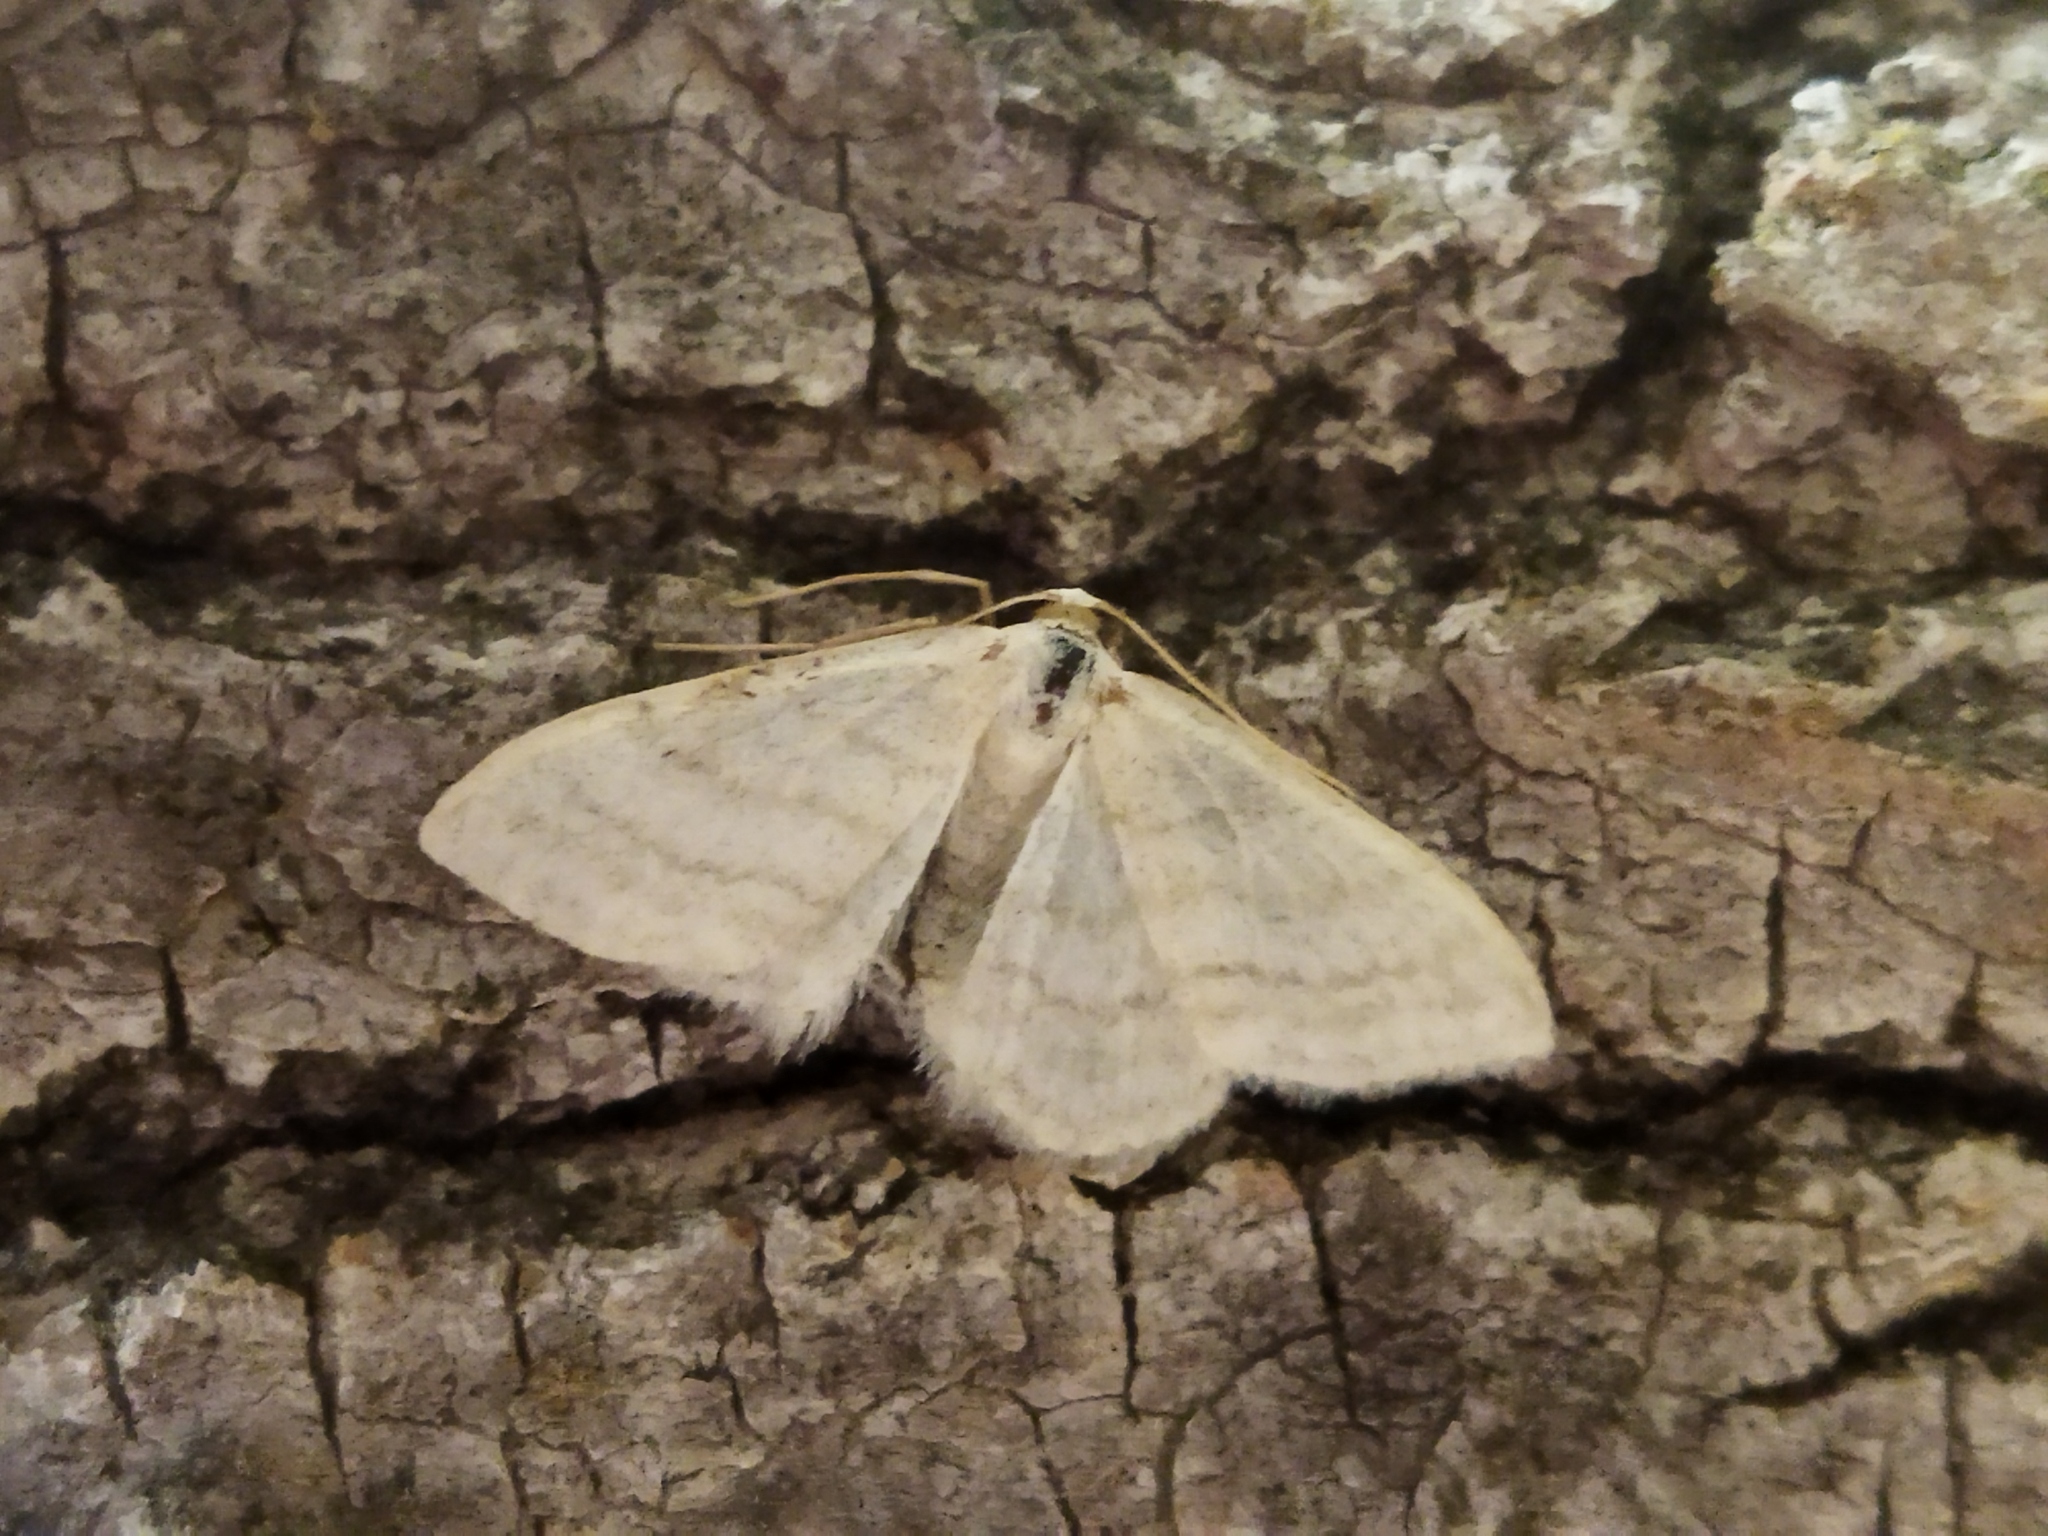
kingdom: Animalia
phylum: Arthropoda
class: Insecta
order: Lepidoptera
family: Geometridae
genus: Idaea
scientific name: Idaea subsericeata
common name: Satin wave
